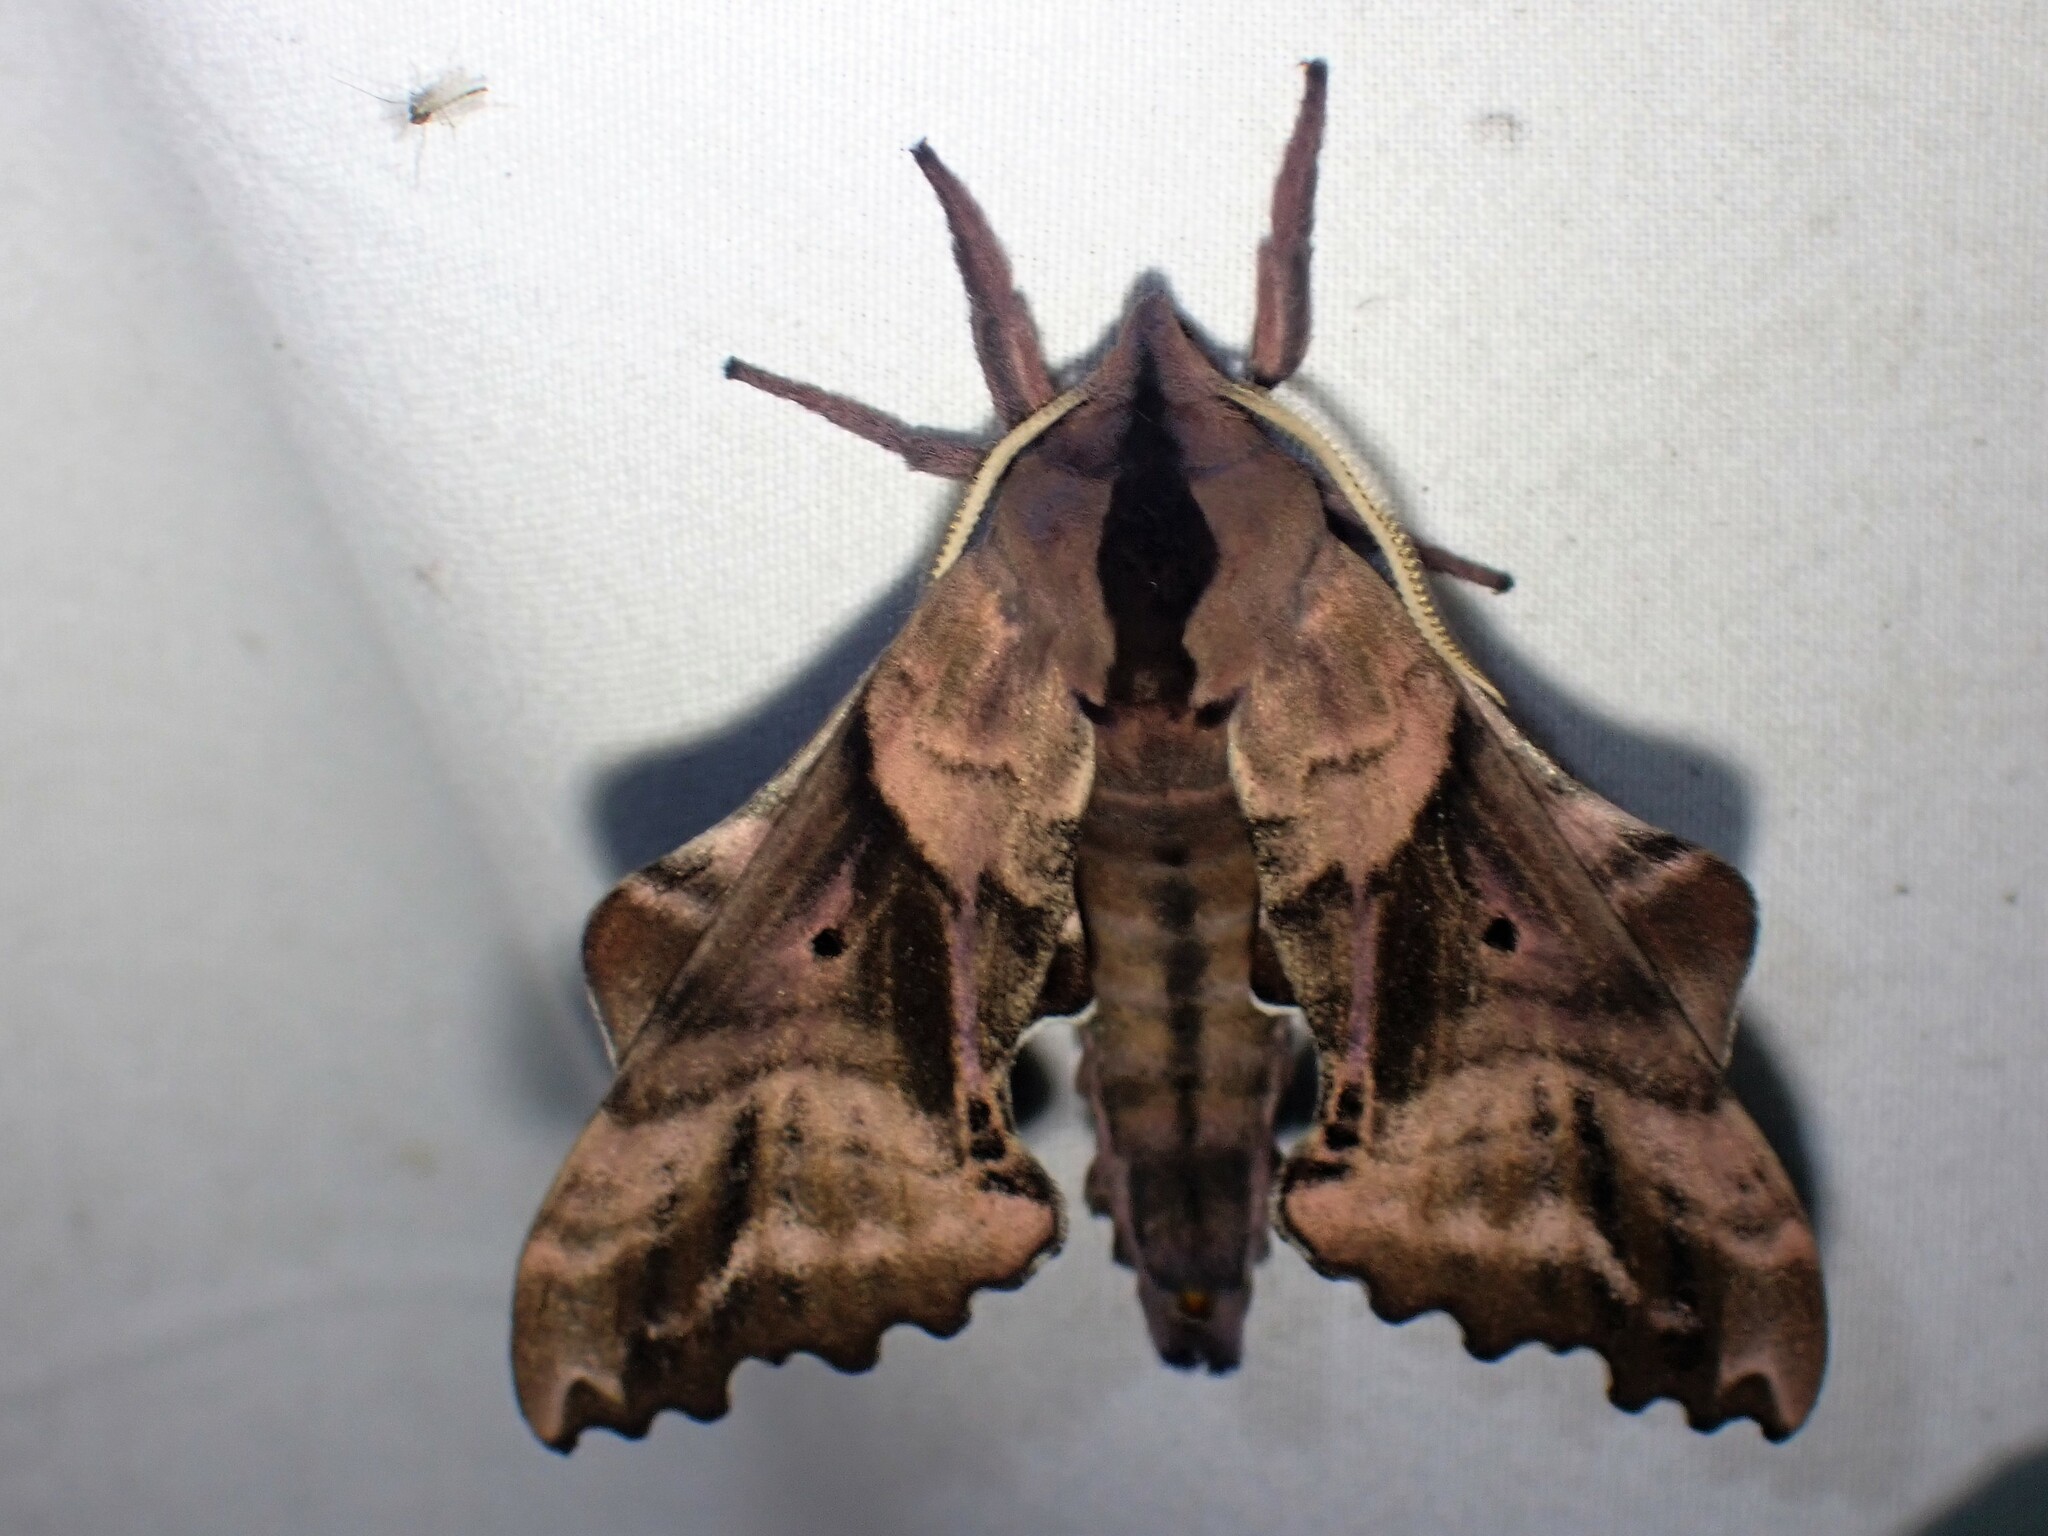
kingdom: Animalia
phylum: Arthropoda
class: Insecta
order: Lepidoptera
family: Sphingidae
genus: Paonias
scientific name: Paonias excaecata
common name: Blind-eyed sphinx
